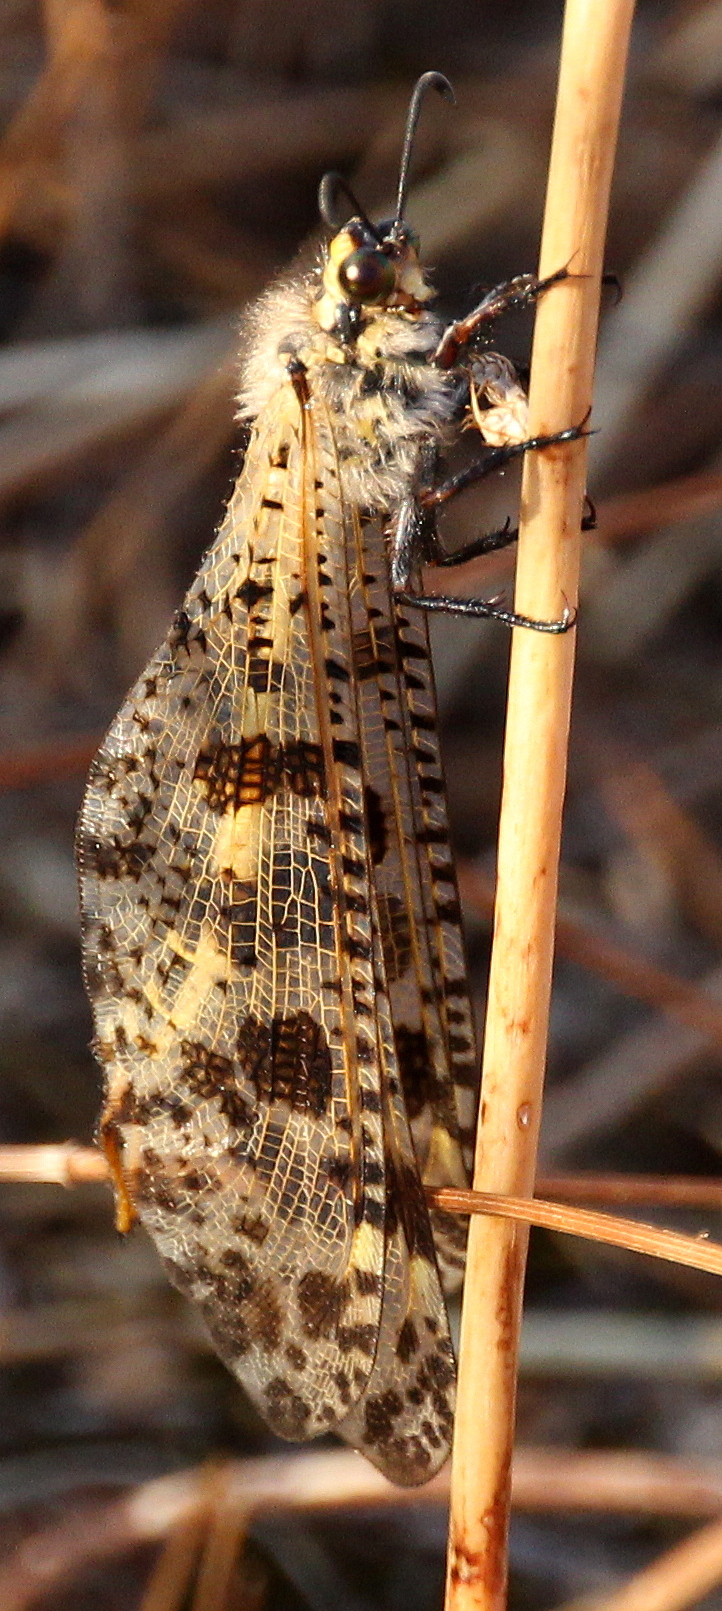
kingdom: Animalia
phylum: Arthropoda
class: Insecta
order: Neuroptera
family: Myrmeleontidae
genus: Palpares
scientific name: Palpares libelluloides
